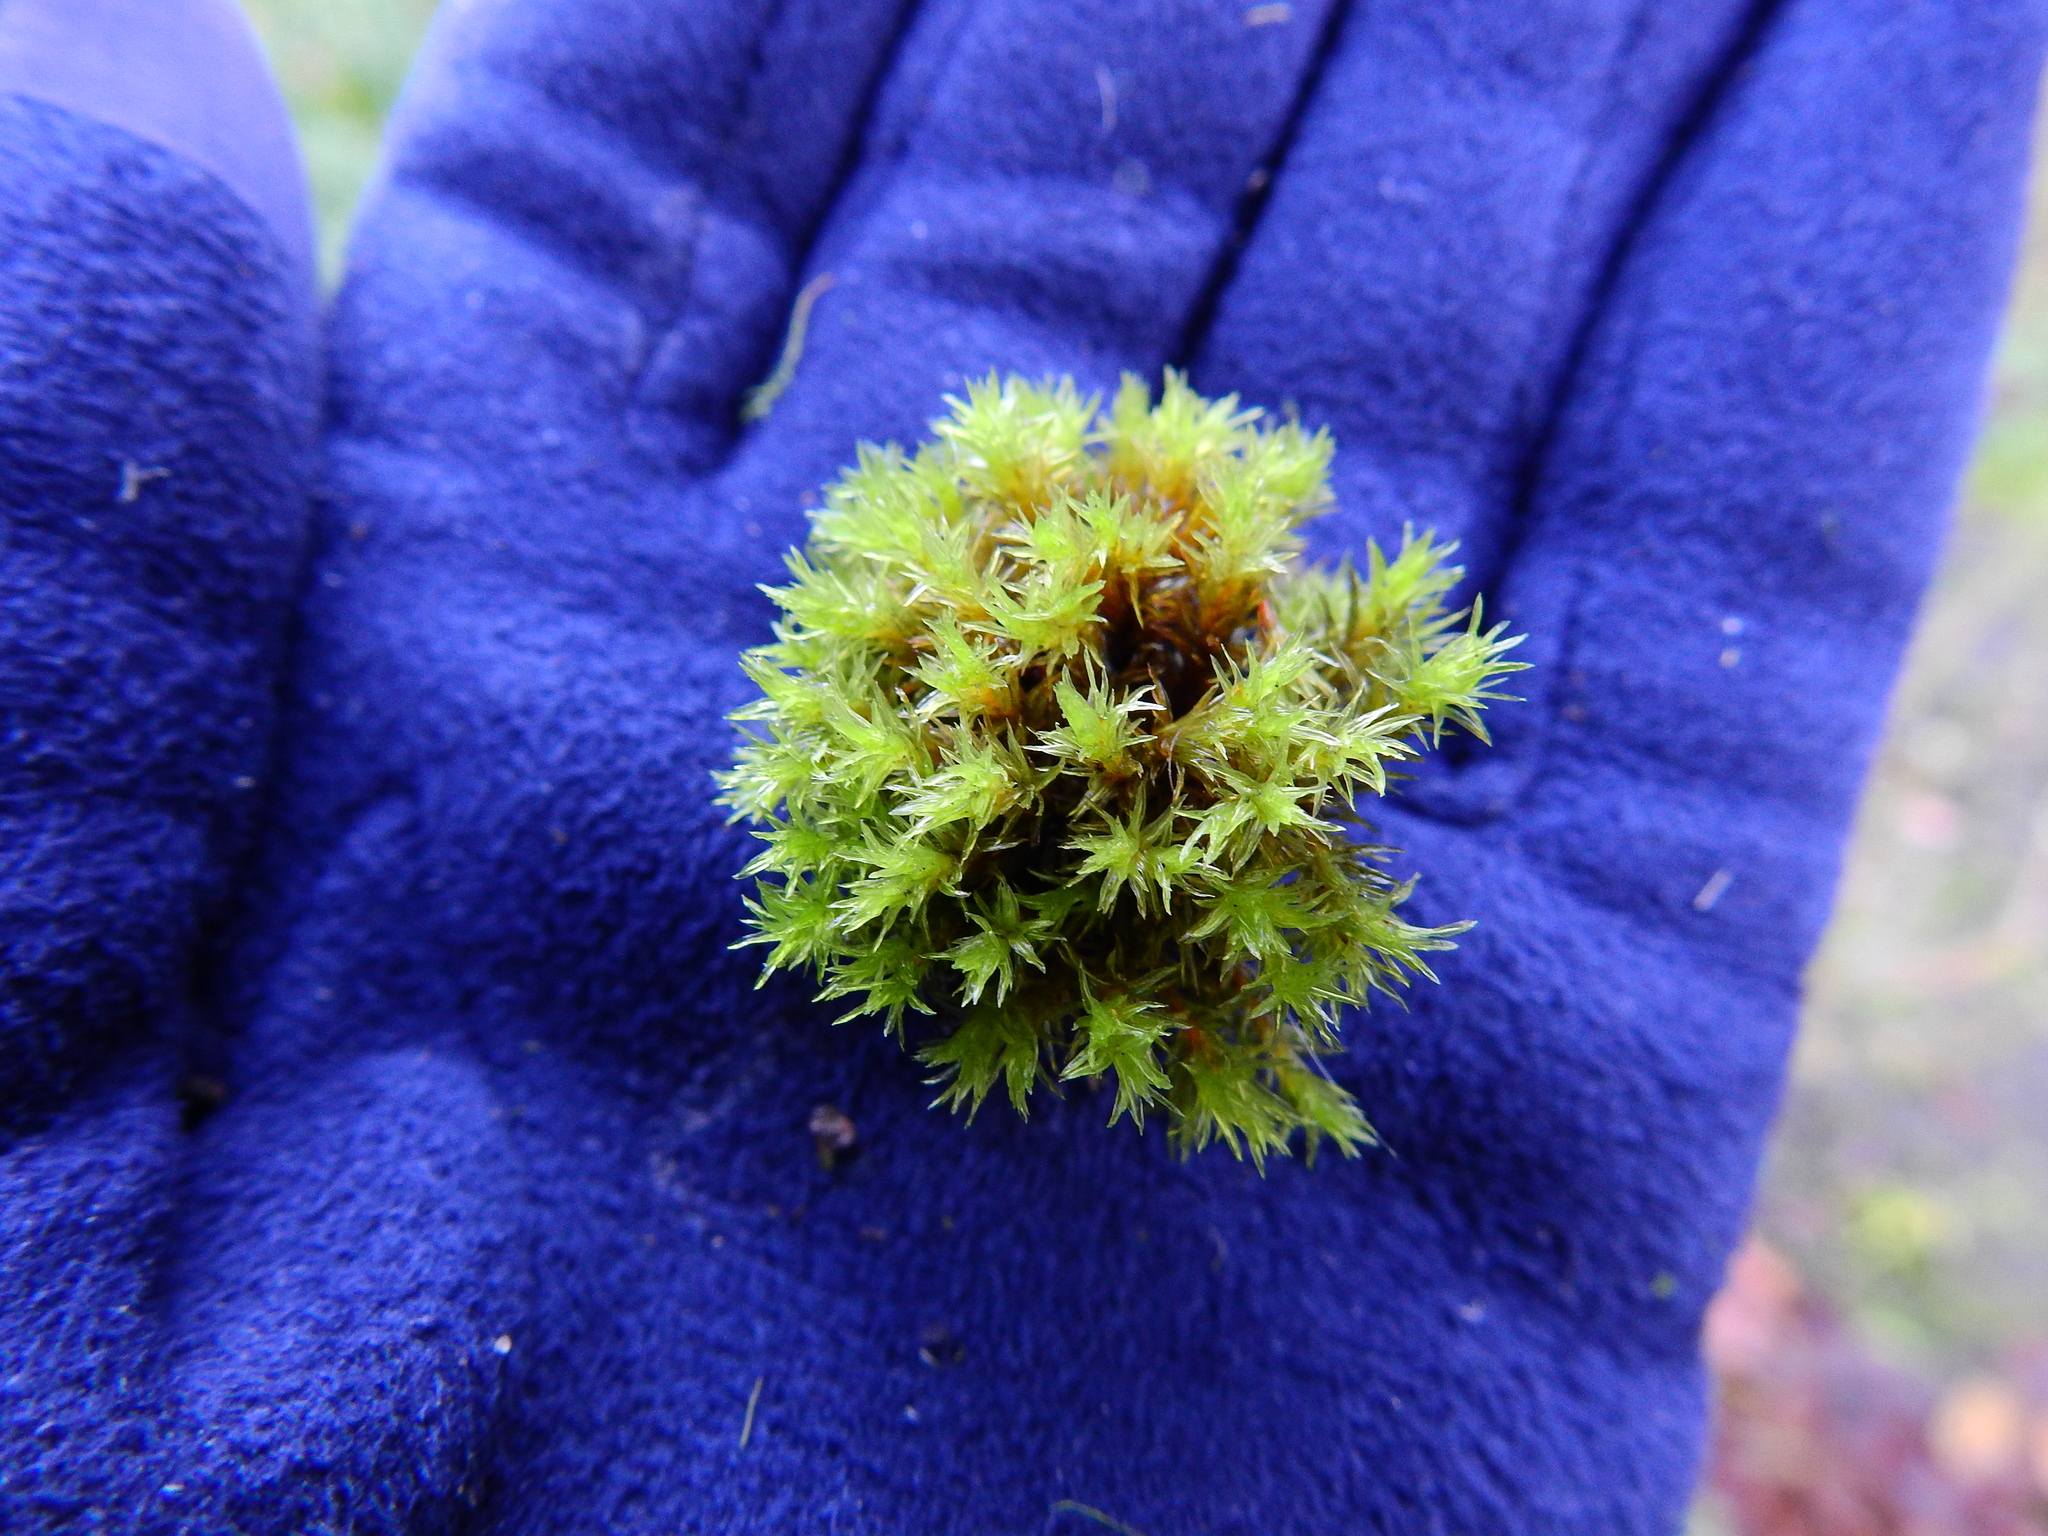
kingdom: Plantae
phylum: Bryophyta
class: Bryopsida
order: Orthotrichales
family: Orthotrichaceae
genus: Lewinskya
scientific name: Lewinskya affinis
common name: Wood bristle-moss
